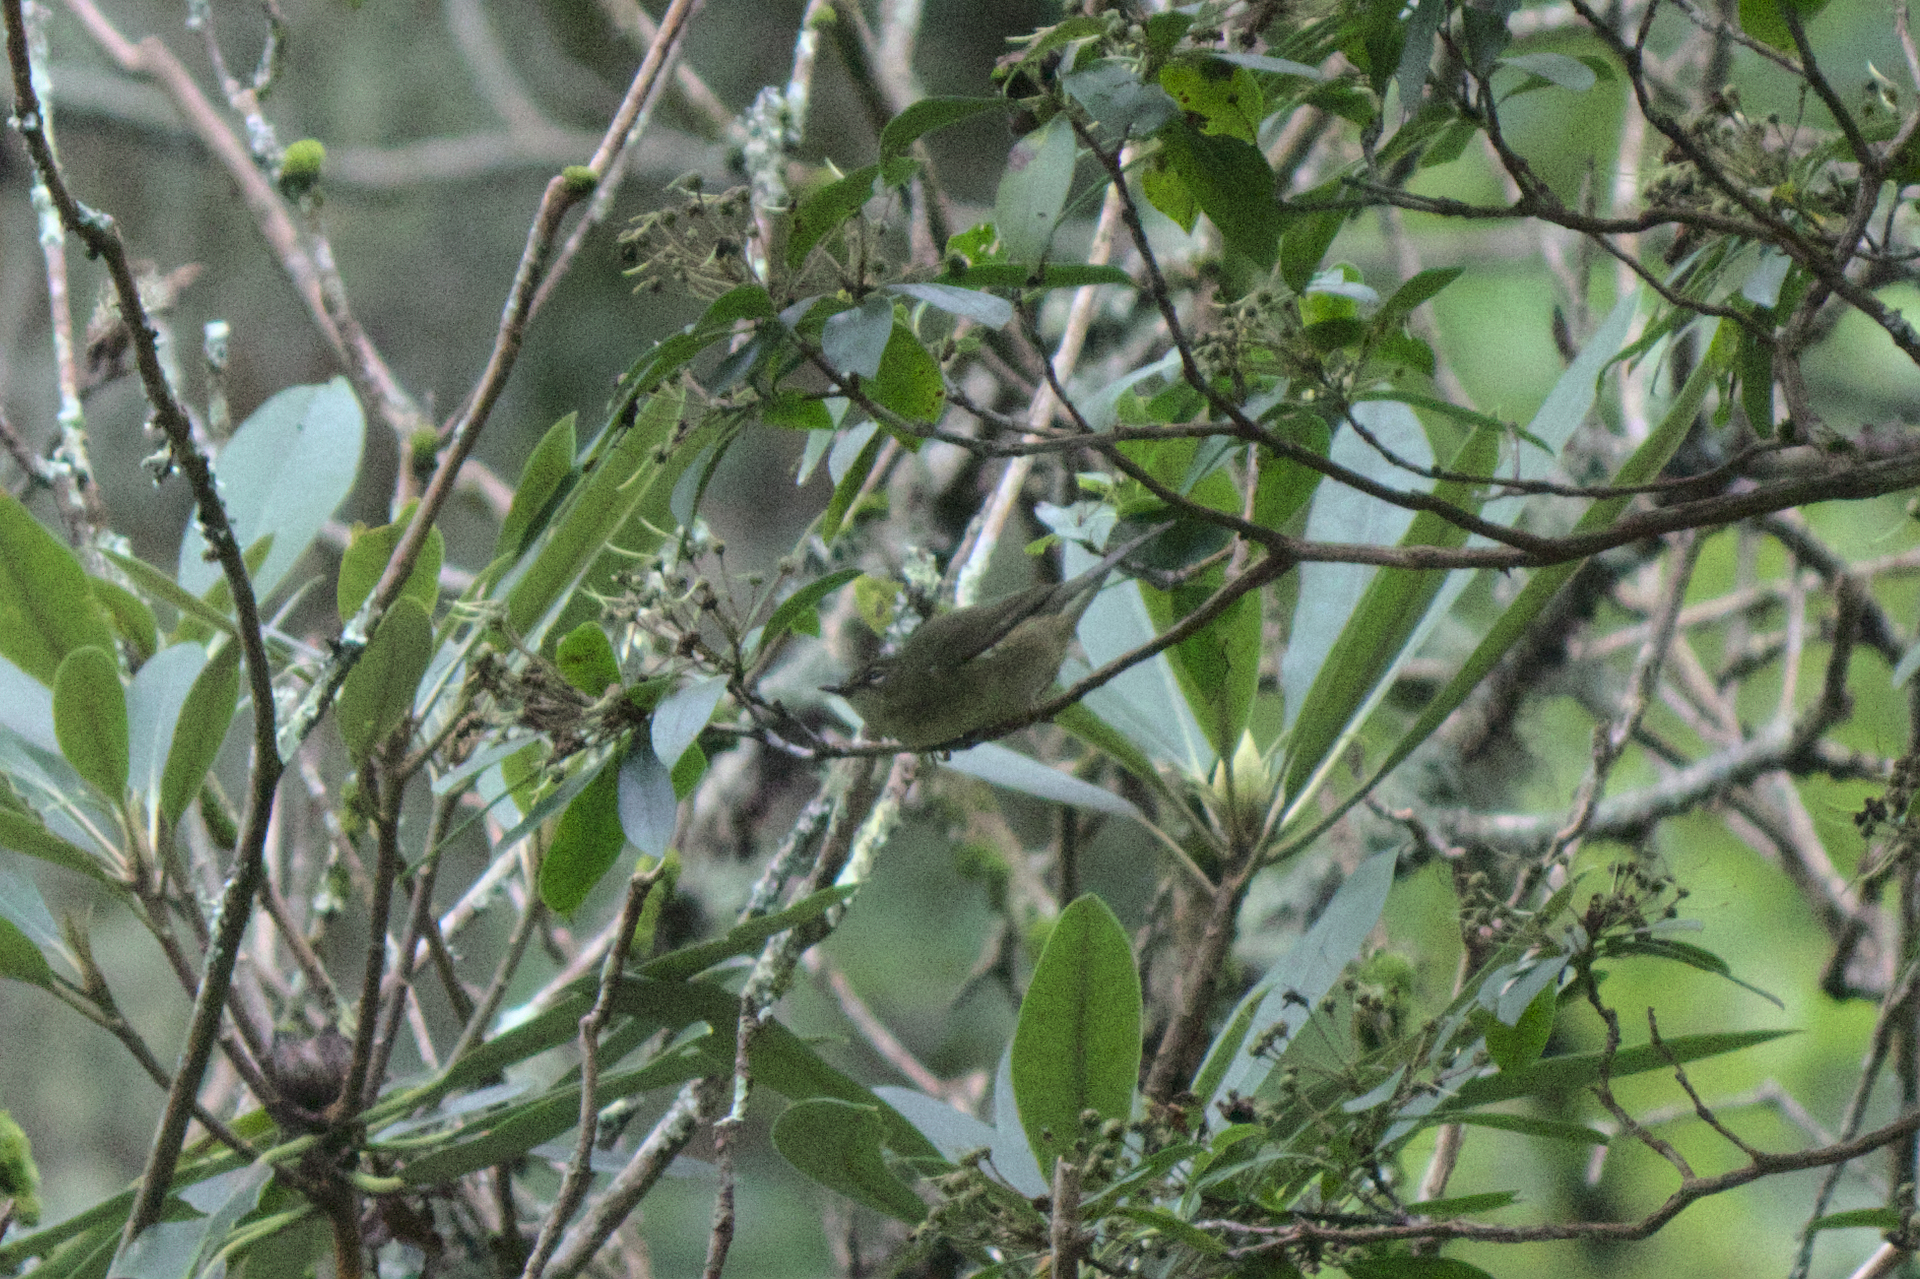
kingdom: Animalia
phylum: Chordata
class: Aves
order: Passeriformes
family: Parulidae
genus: Setophaga
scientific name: Setophaga caerulescens
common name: Black-throated blue warbler
